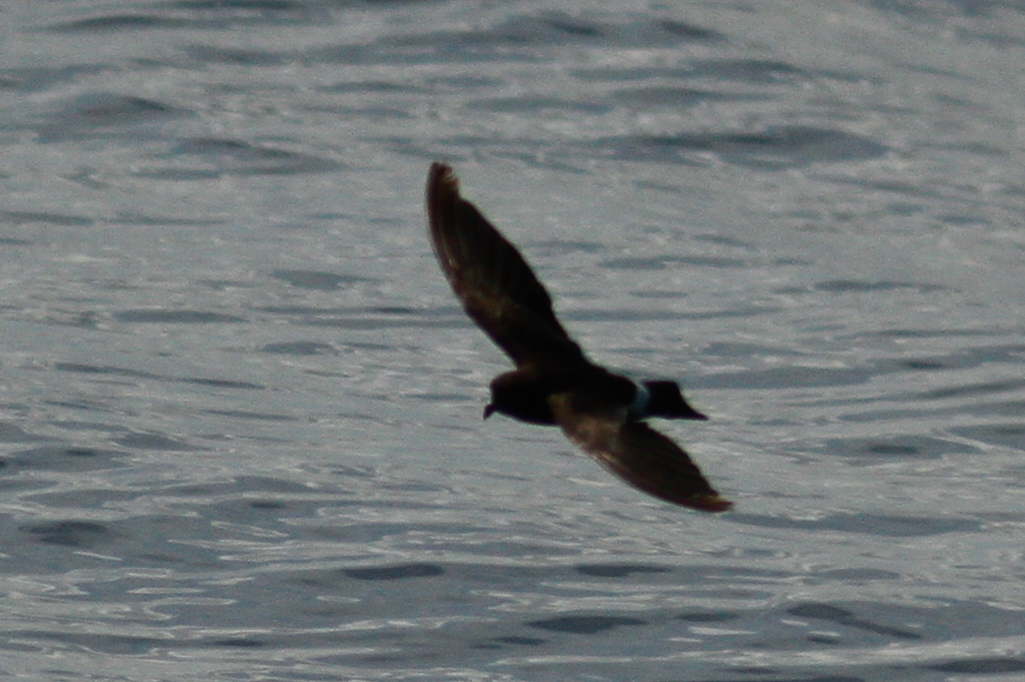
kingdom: Animalia
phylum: Chordata
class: Aves
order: Procellariiformes
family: Hydrobatidae
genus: Oceanites
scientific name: Oceanites gracilis
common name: Elliot's storm-petrel
